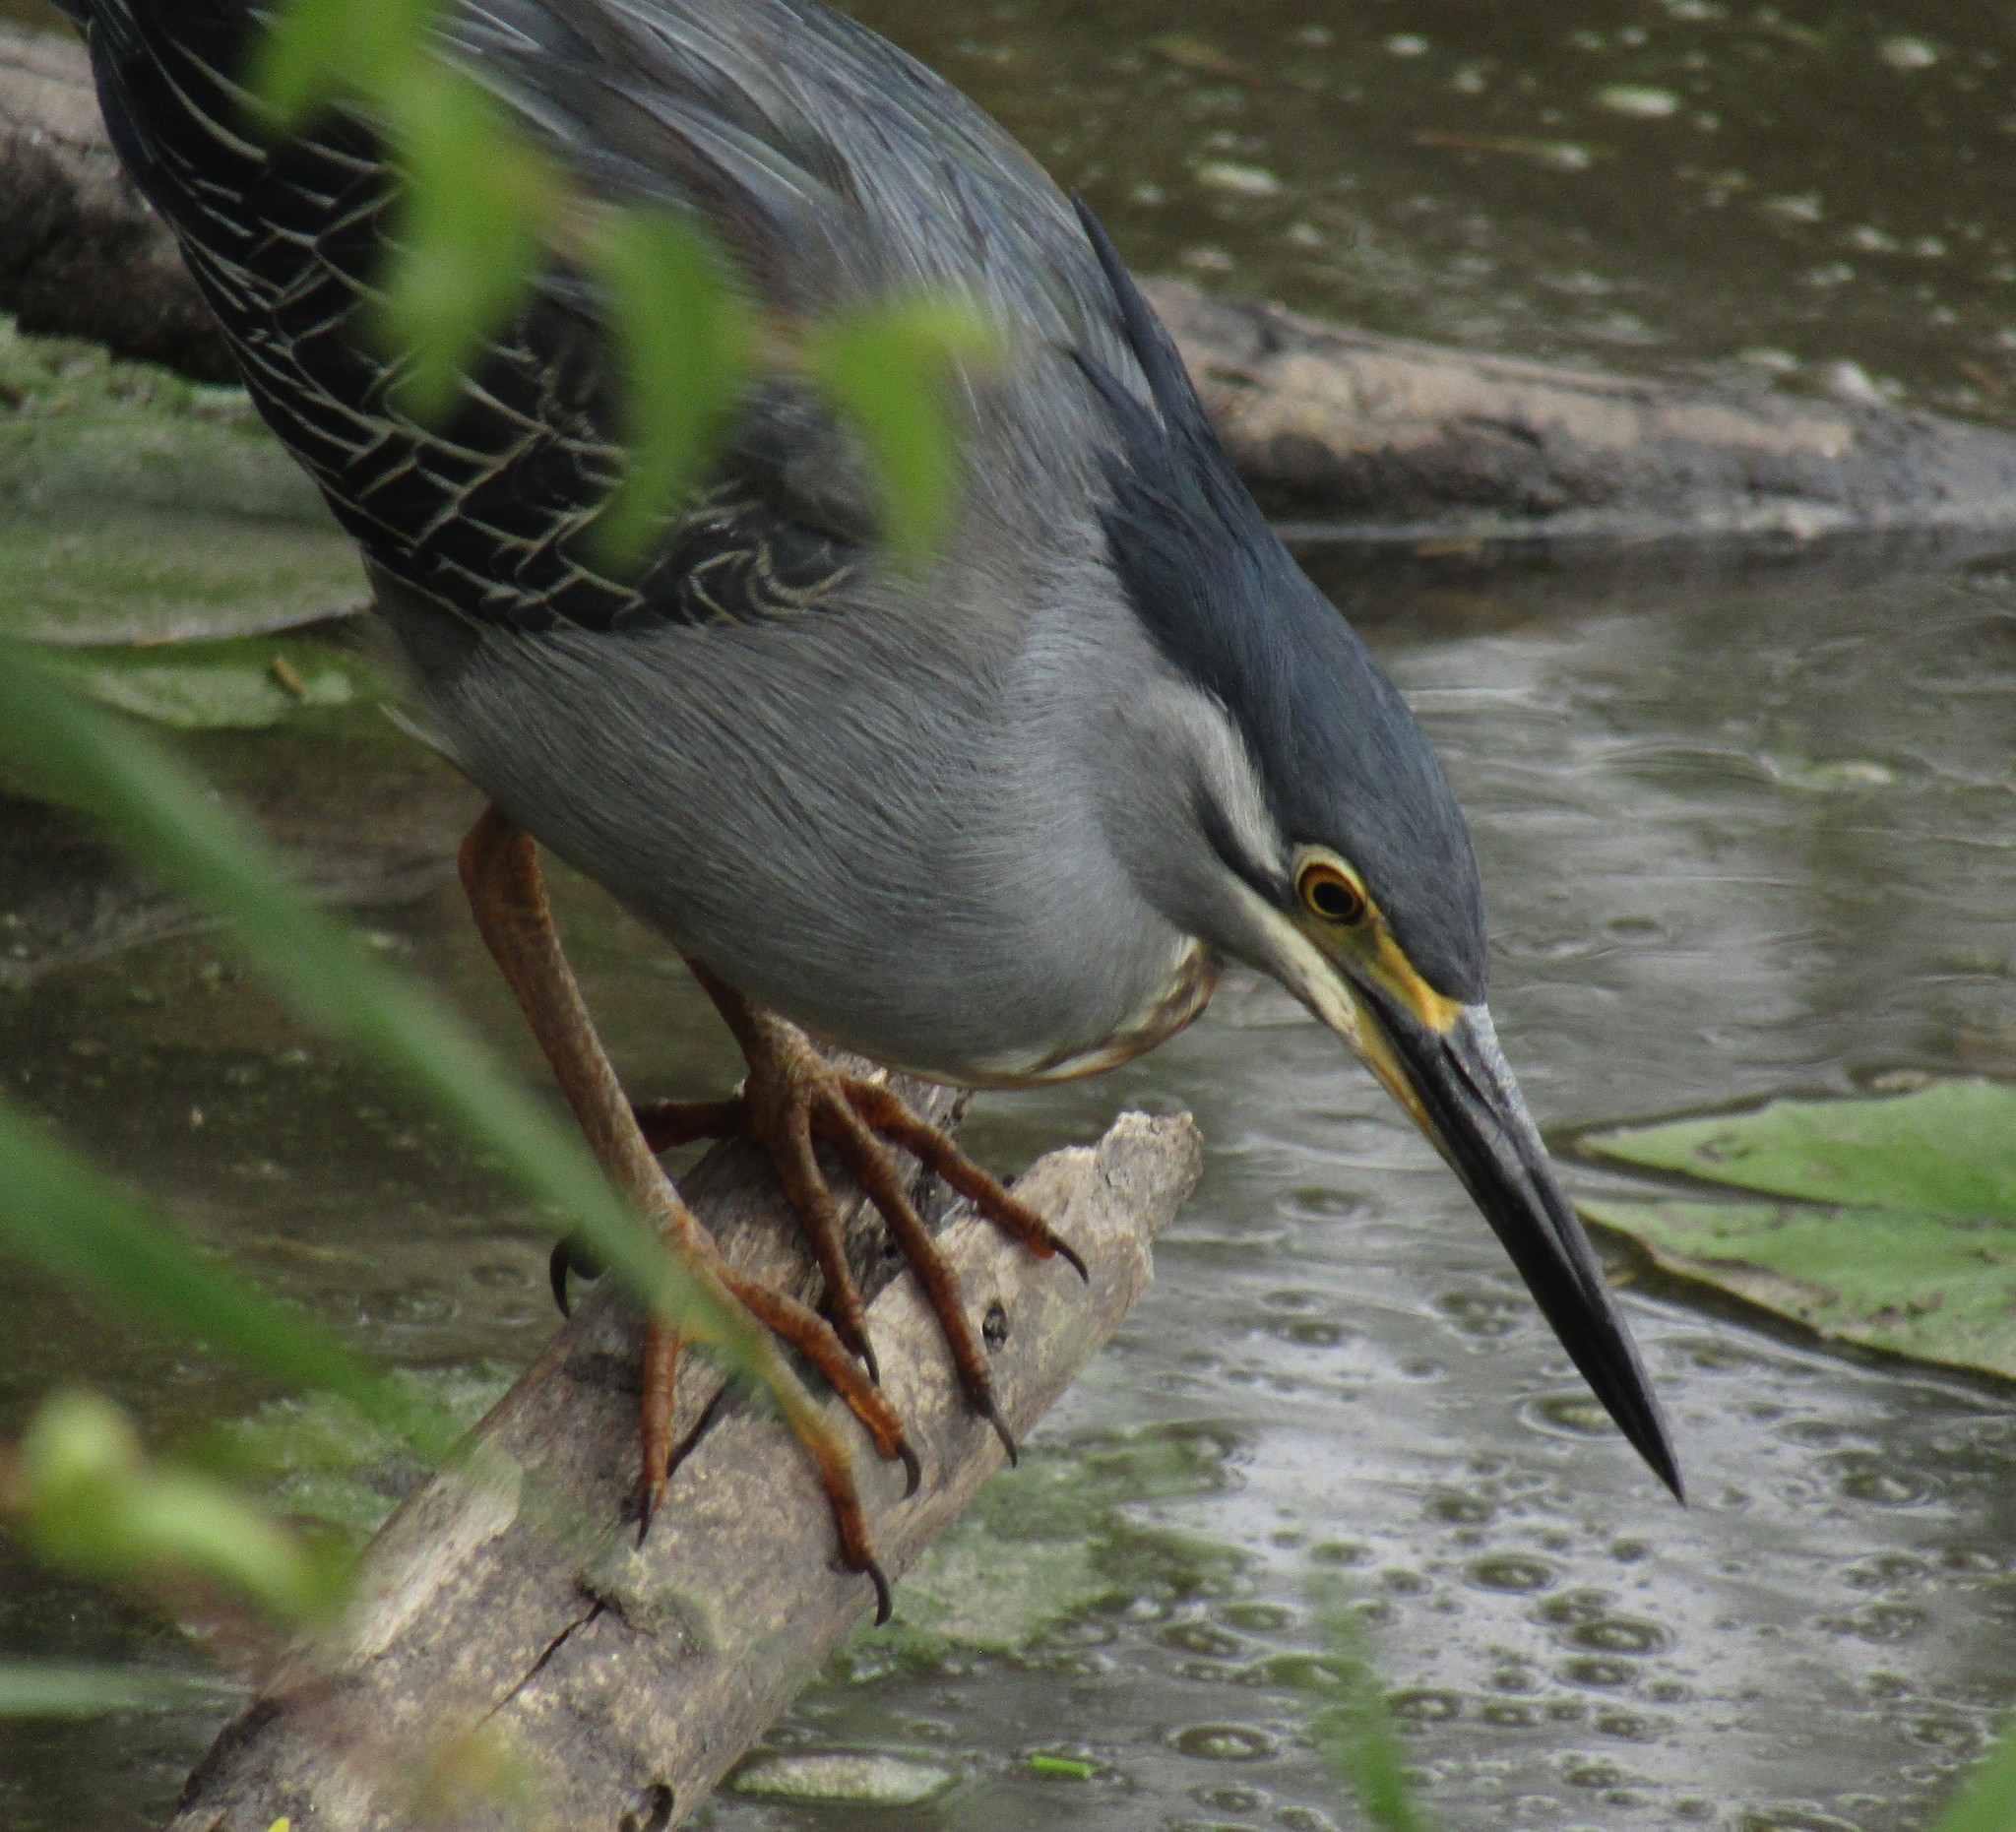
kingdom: Animalia
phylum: Chordata
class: Aves
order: Pelecaniformes
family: Ardeidae
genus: Butorides
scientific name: Butorides striata
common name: Striated heron
